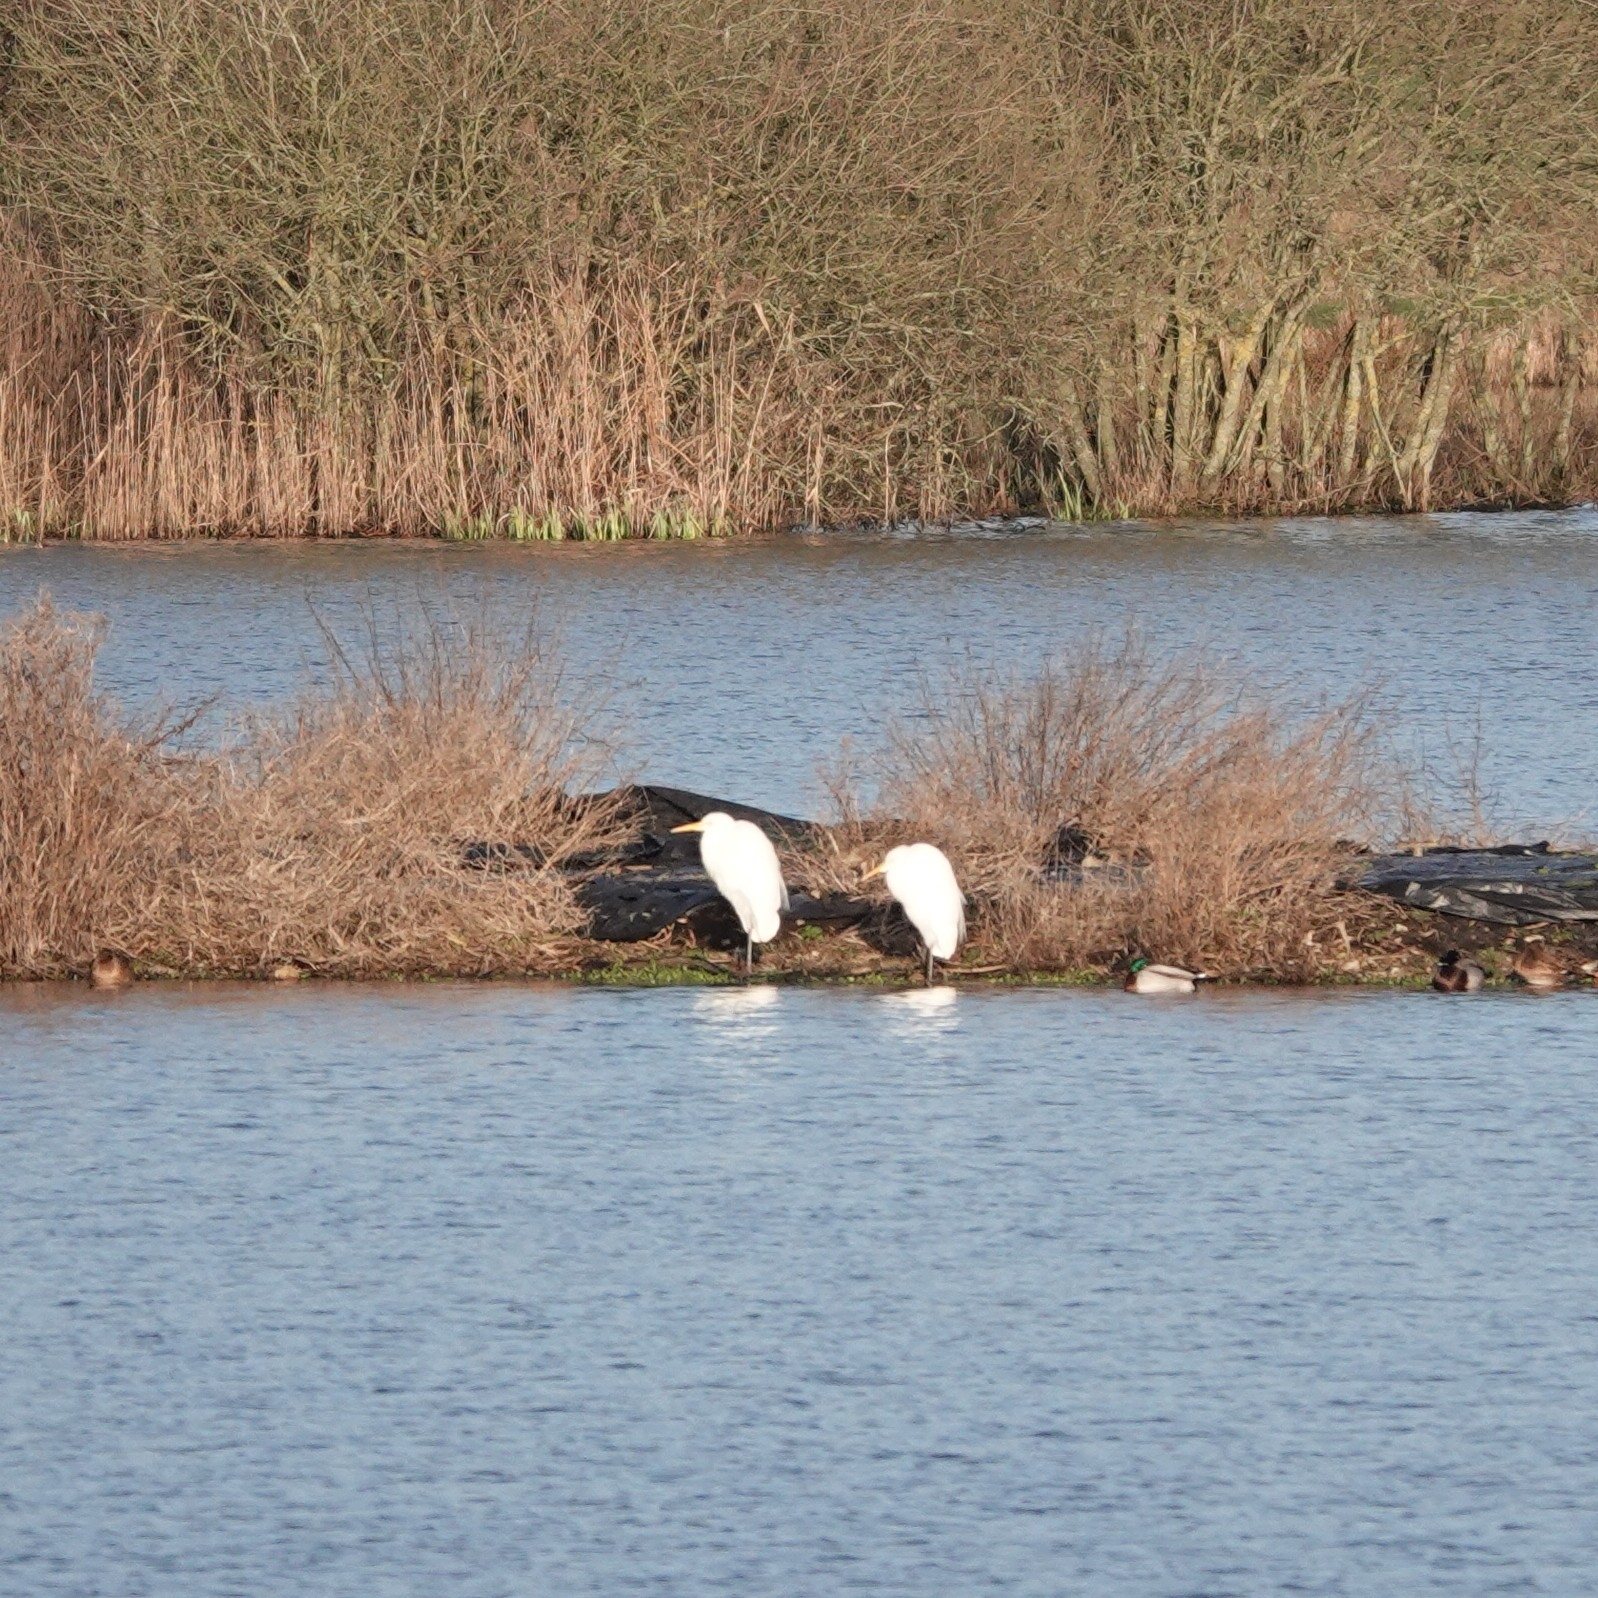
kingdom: Animalia
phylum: Chordata
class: Aves
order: Pelecaniformes
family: Ardeidae
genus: Ardea
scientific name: Ardea alba
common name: Great egret
